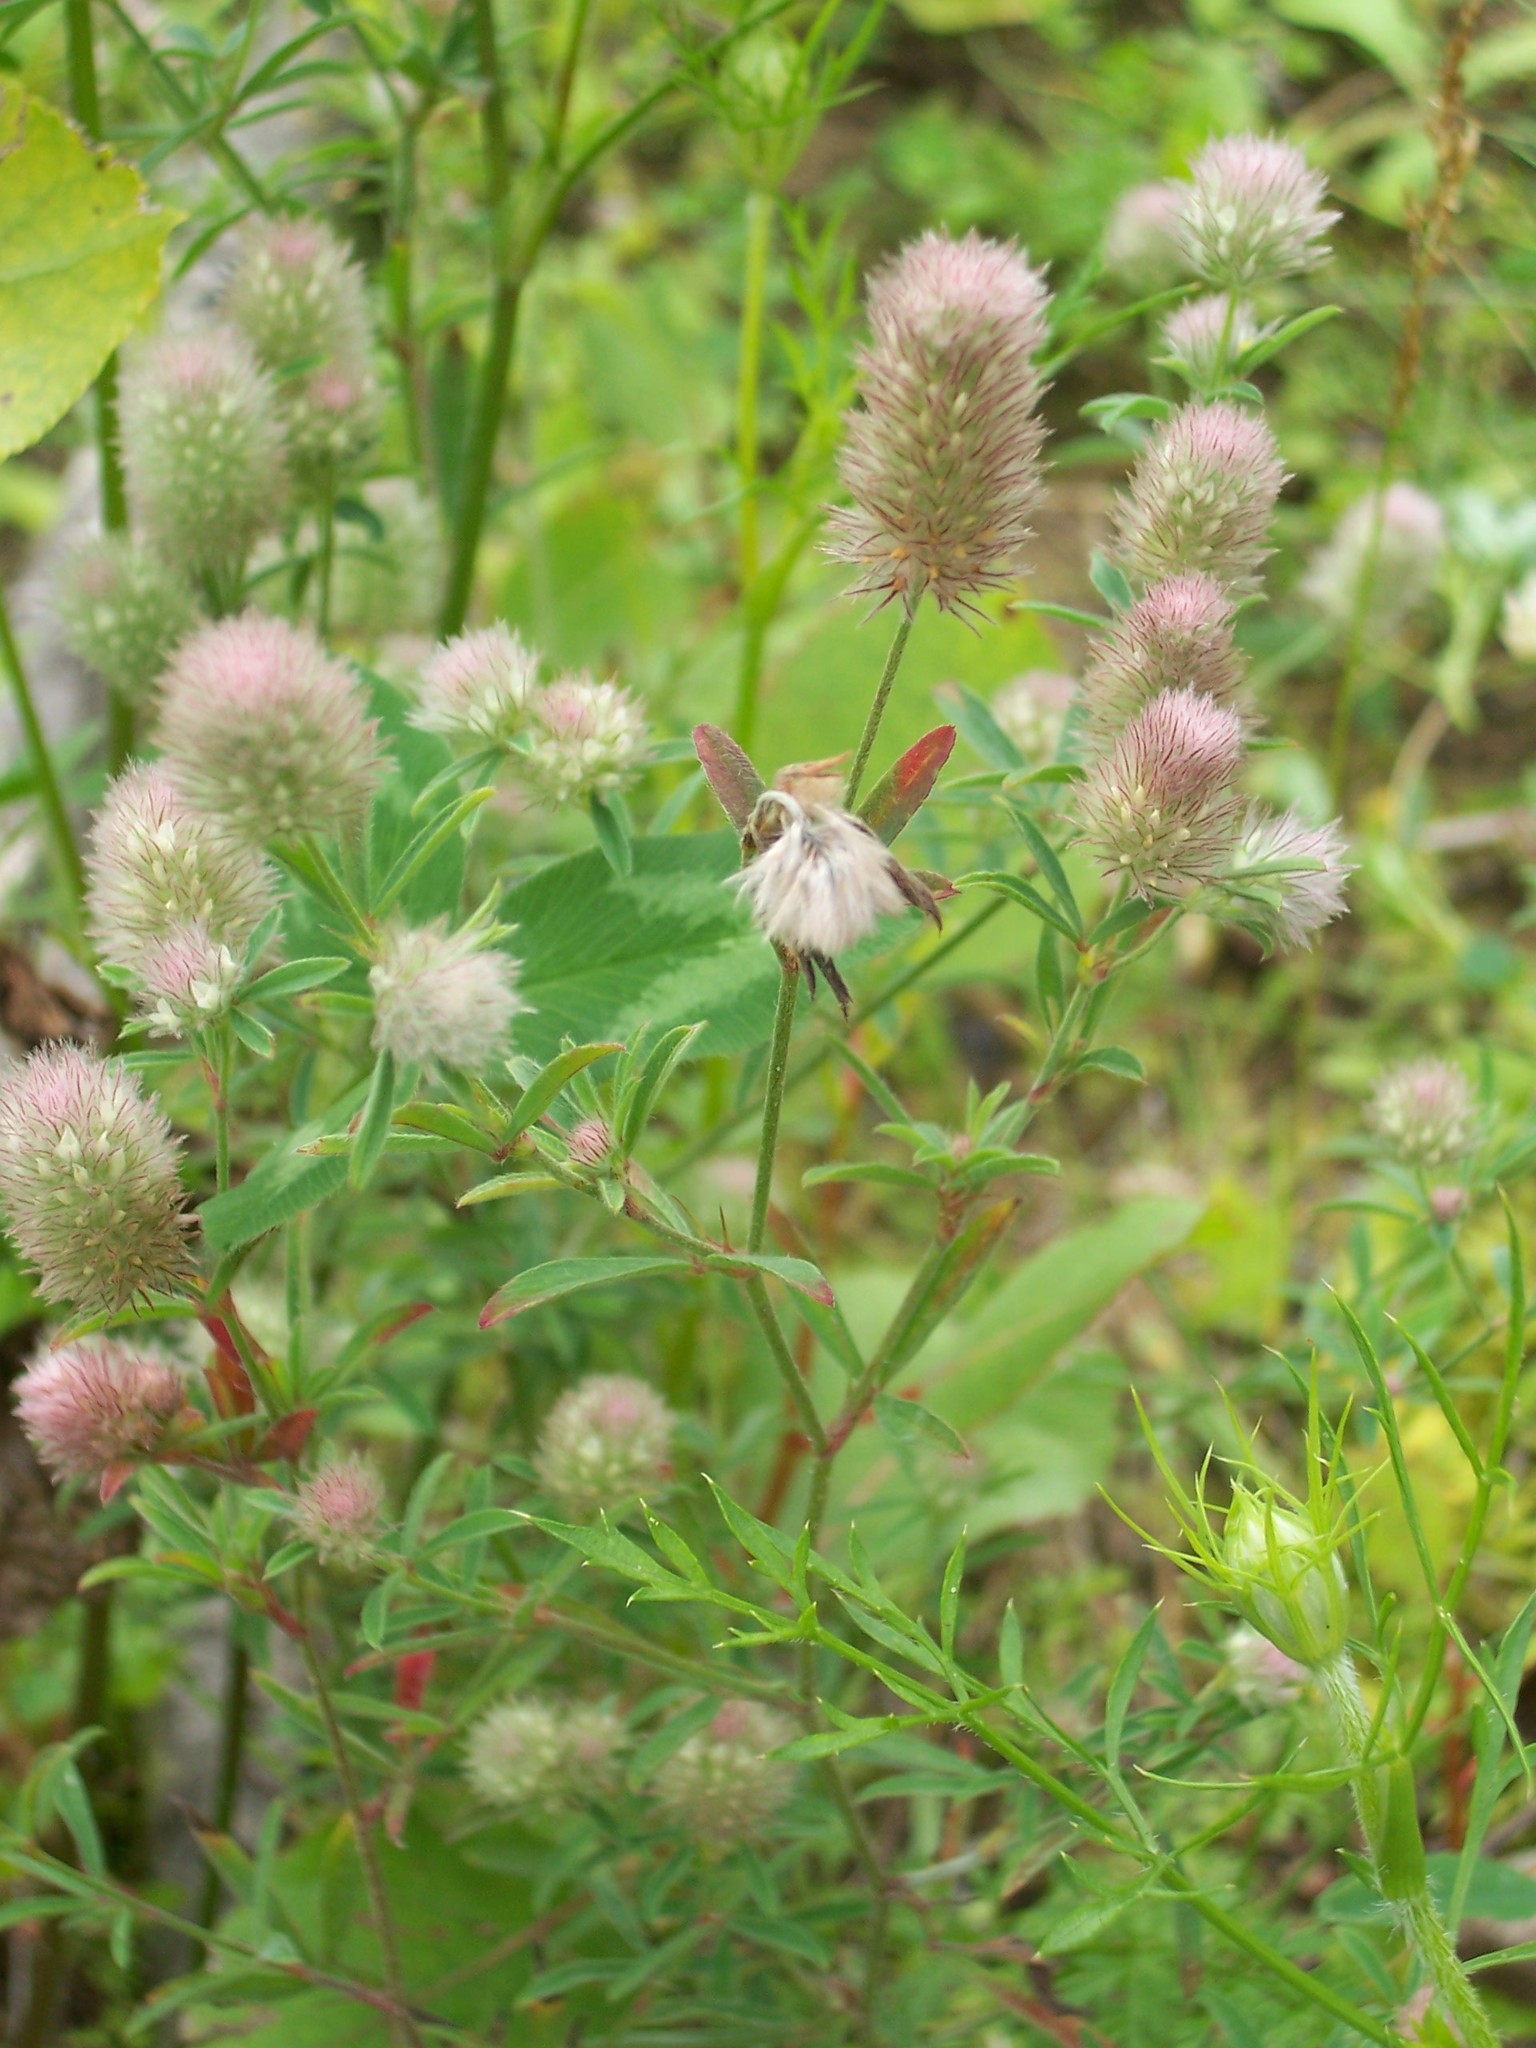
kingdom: Plantae
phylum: Tracheophyta
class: Magnoliopsida
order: Fabales
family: Fabaceae
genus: Trifolium
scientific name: Trifolium arvense
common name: Hare's-foot clover
